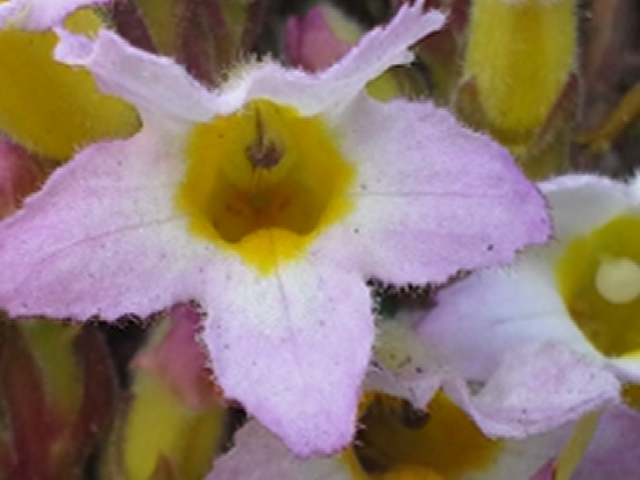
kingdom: Plantae
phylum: Tracheophyta
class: Magnoliopsida
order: Lamiales
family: Orobanchaceae
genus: Harveya
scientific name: Harveya huttonii
